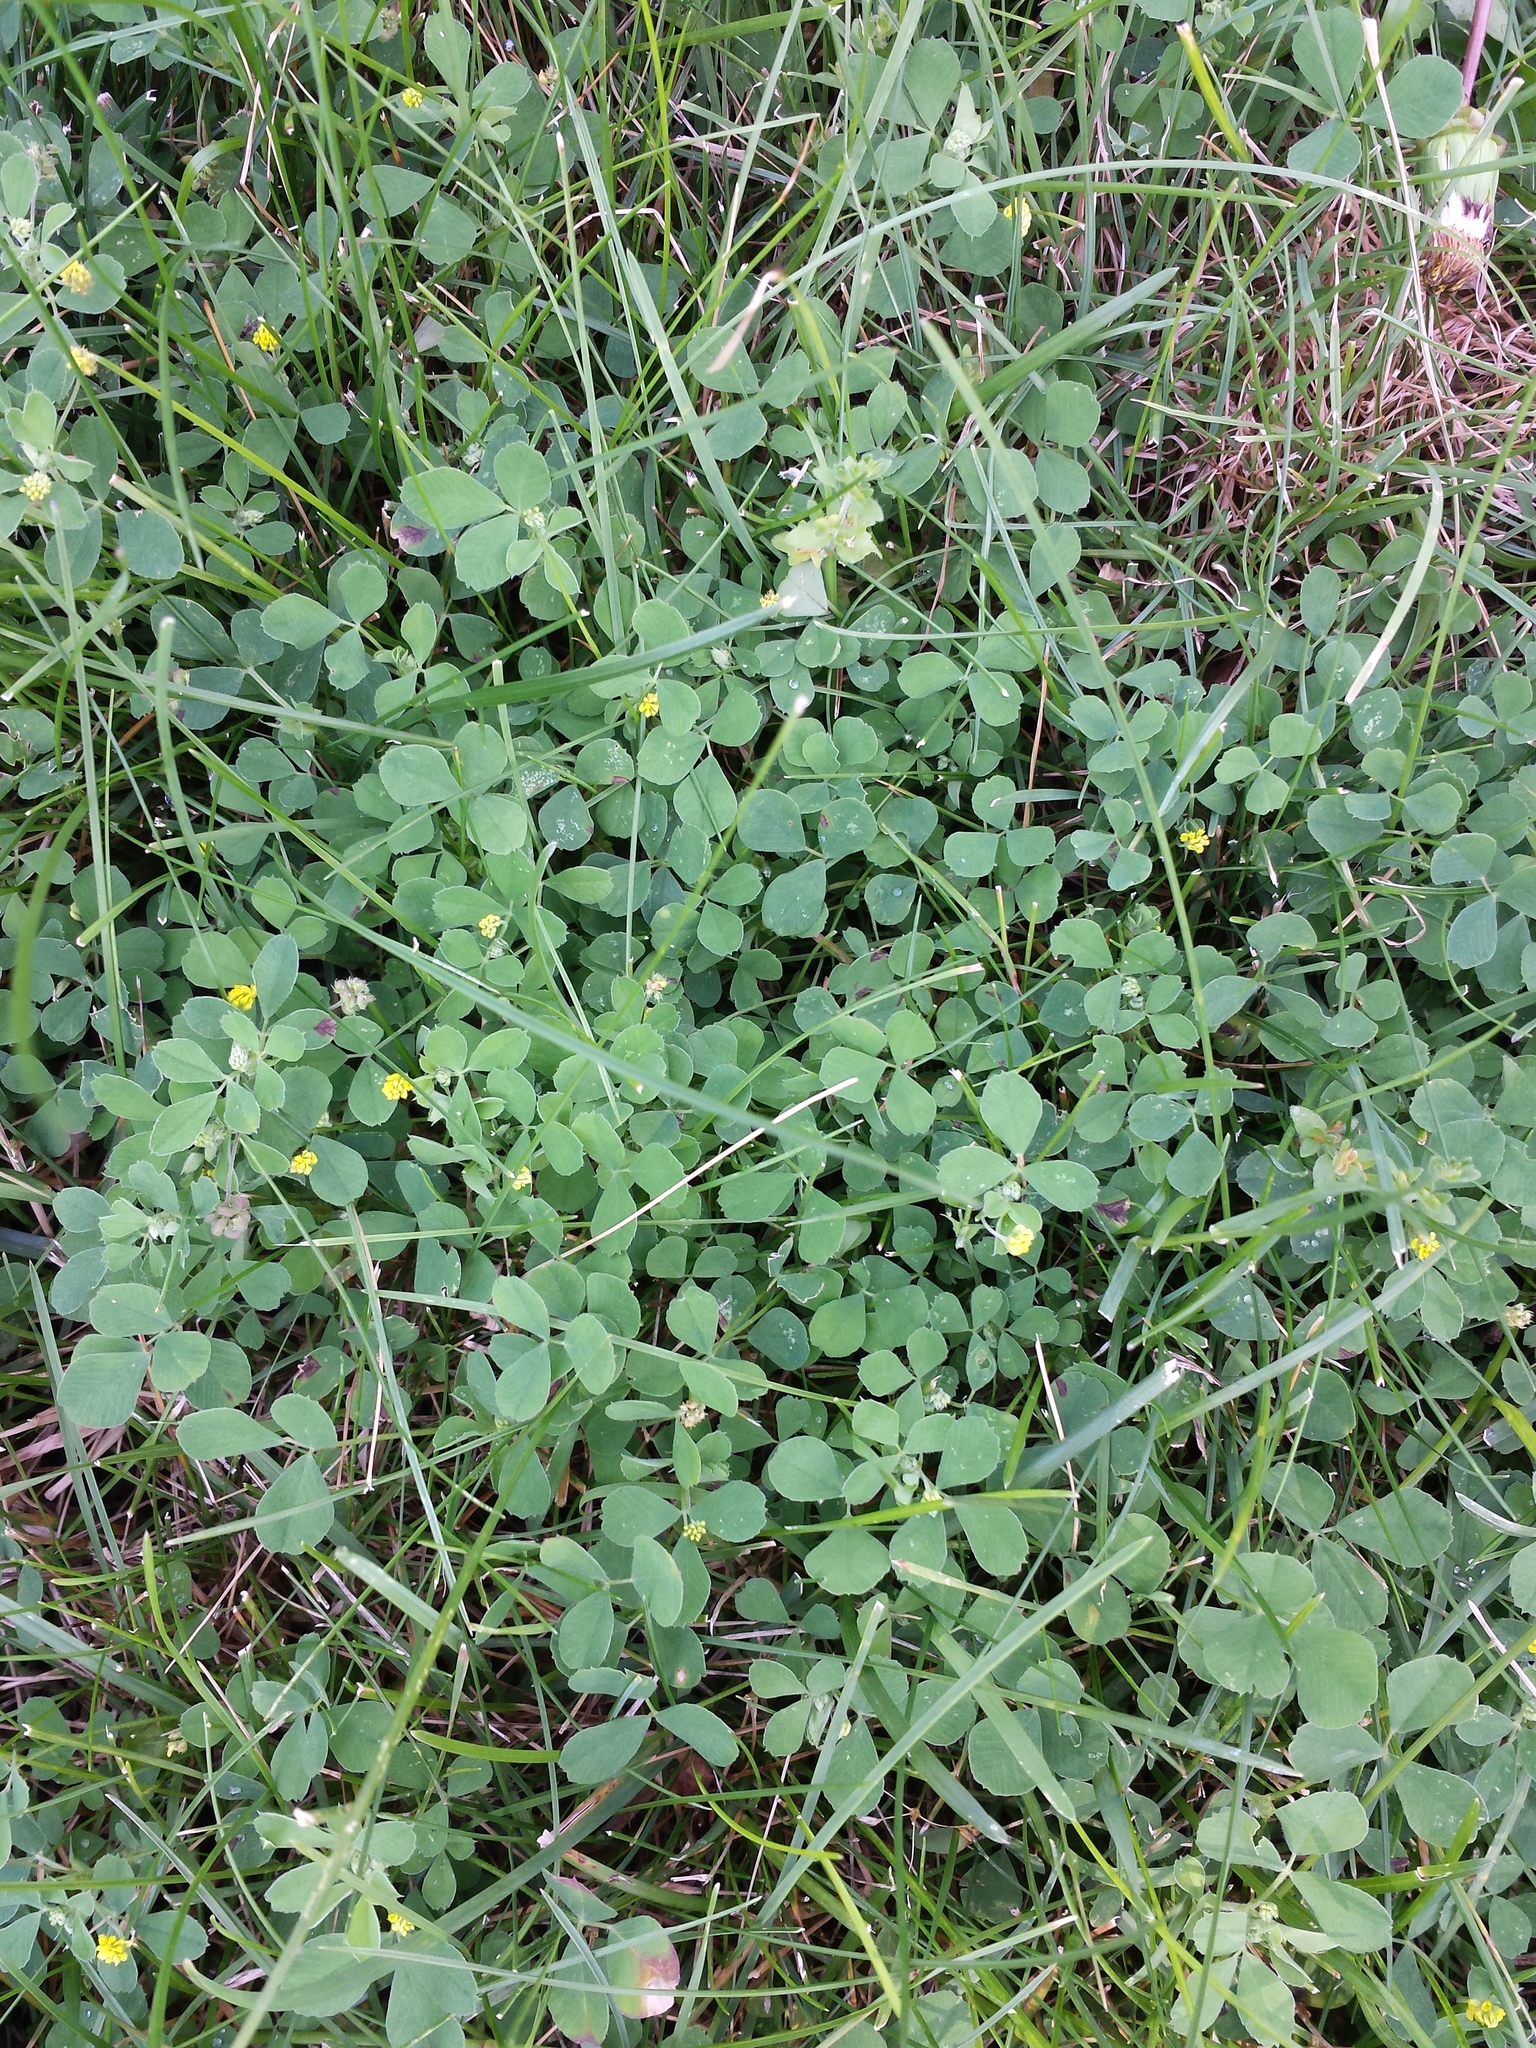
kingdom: Plantae
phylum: Tracheophyta
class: Magnoliopsida
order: Fabales
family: Fabaceae
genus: Medicago
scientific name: Medicago lupulina
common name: Black medick
